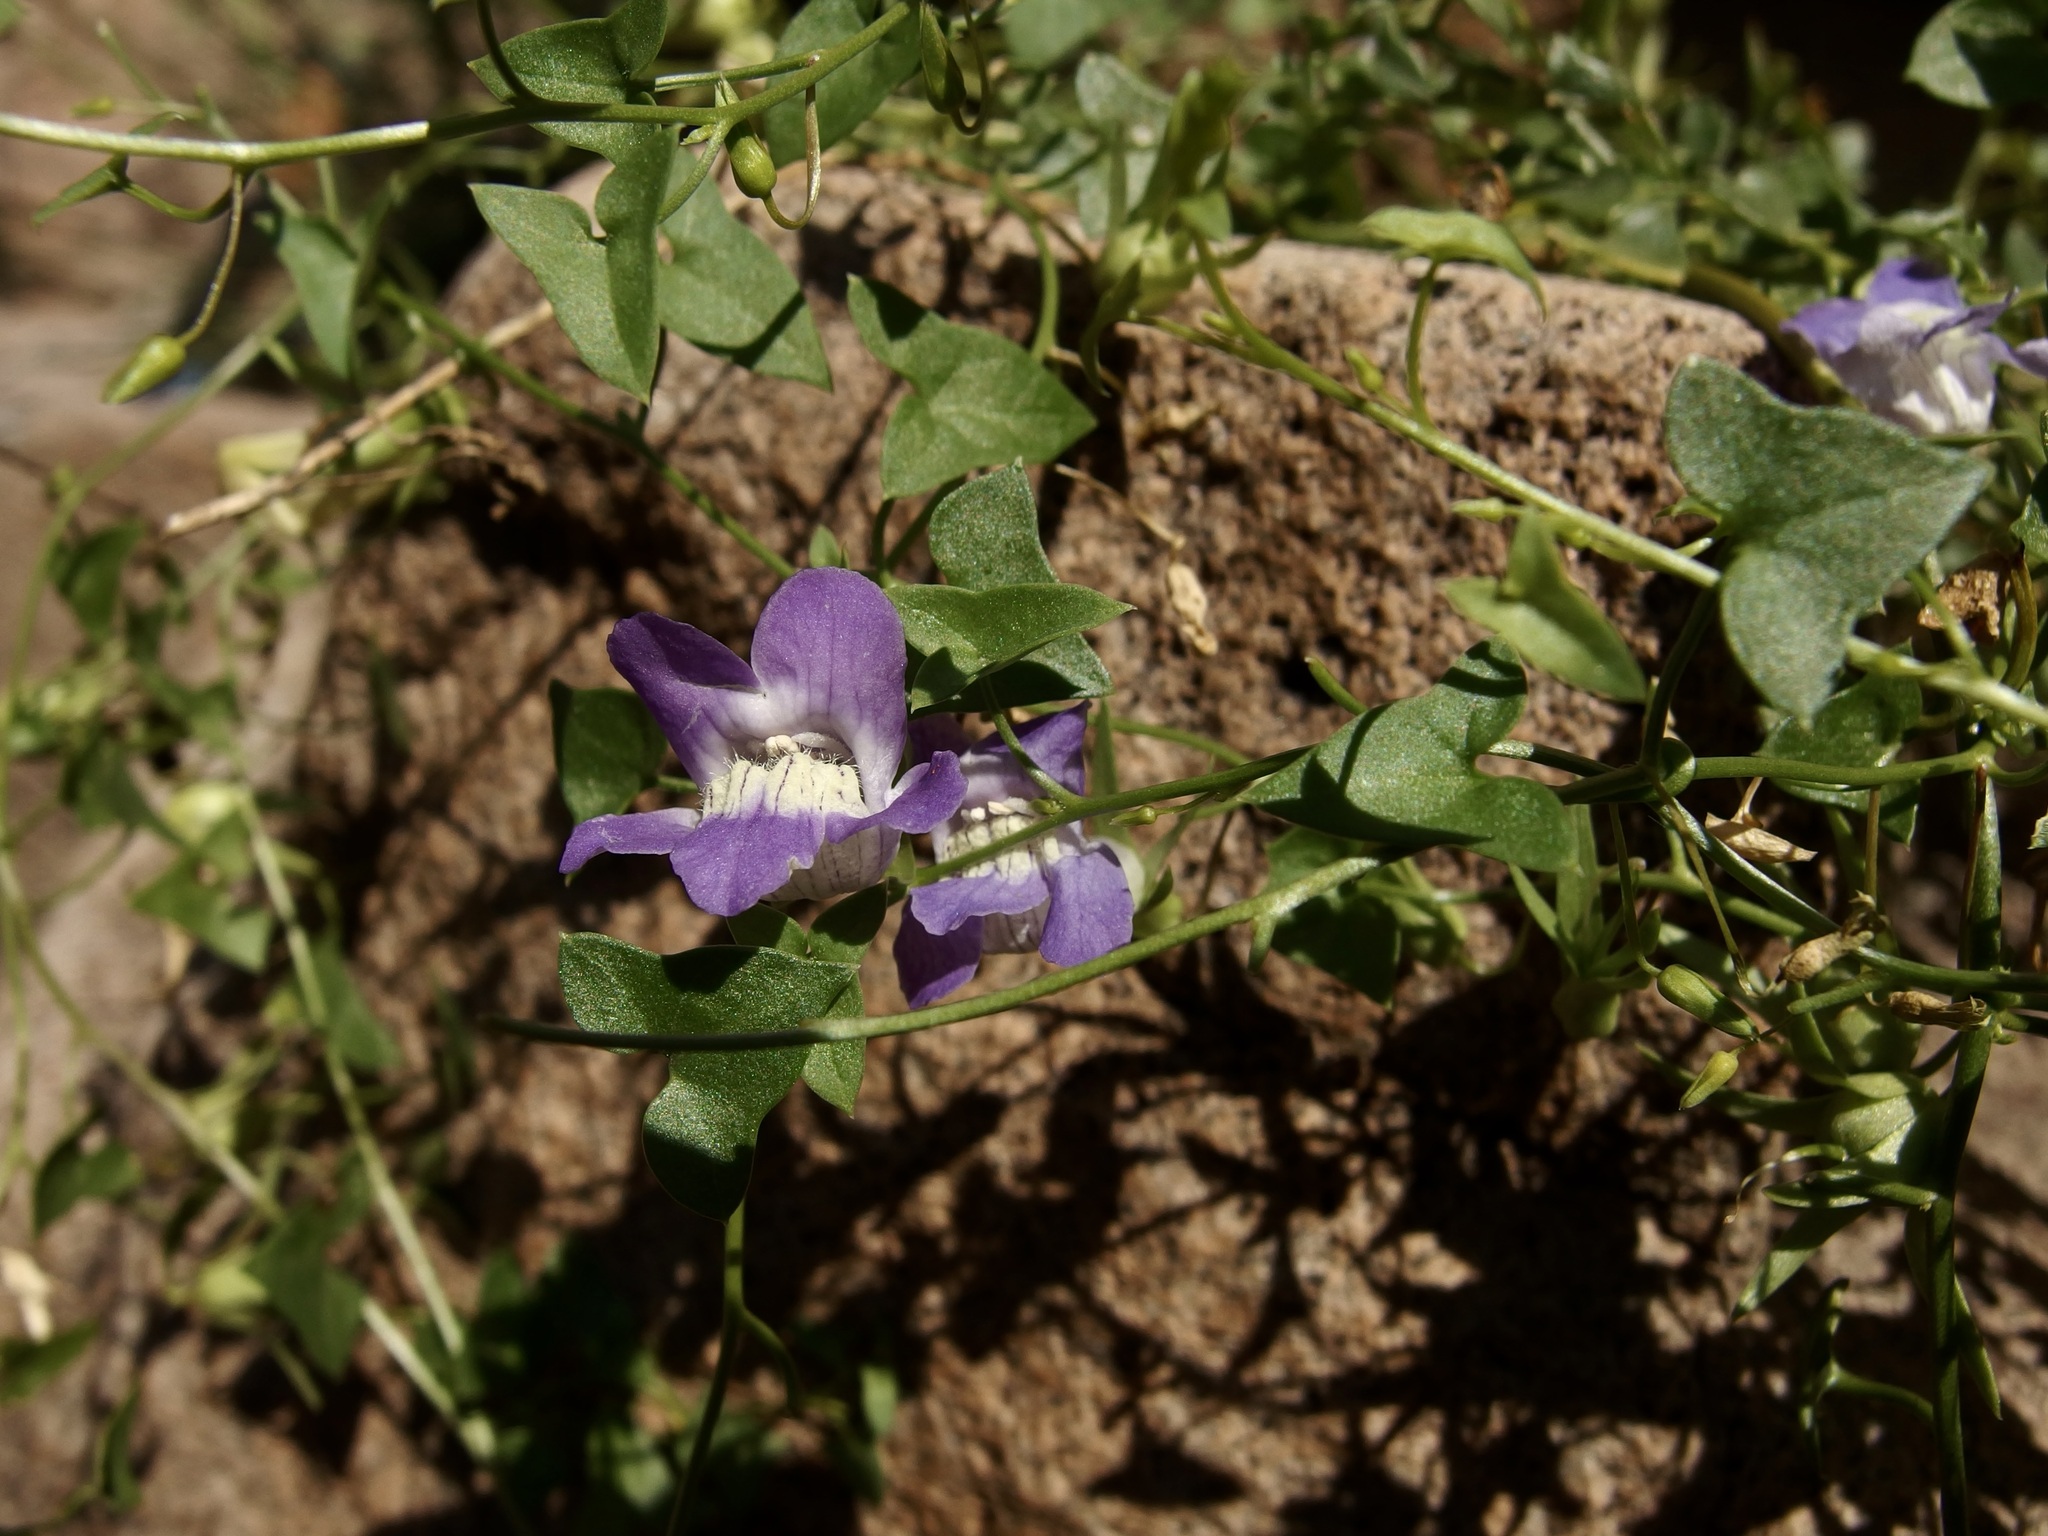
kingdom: Plantae
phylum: Tracheophyta
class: Magnoliopsida
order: Lamiales
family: Plantaginaceae
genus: Maurandella
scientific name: Maurandella antirrhiniflora
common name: Violet twining-snapdragon
